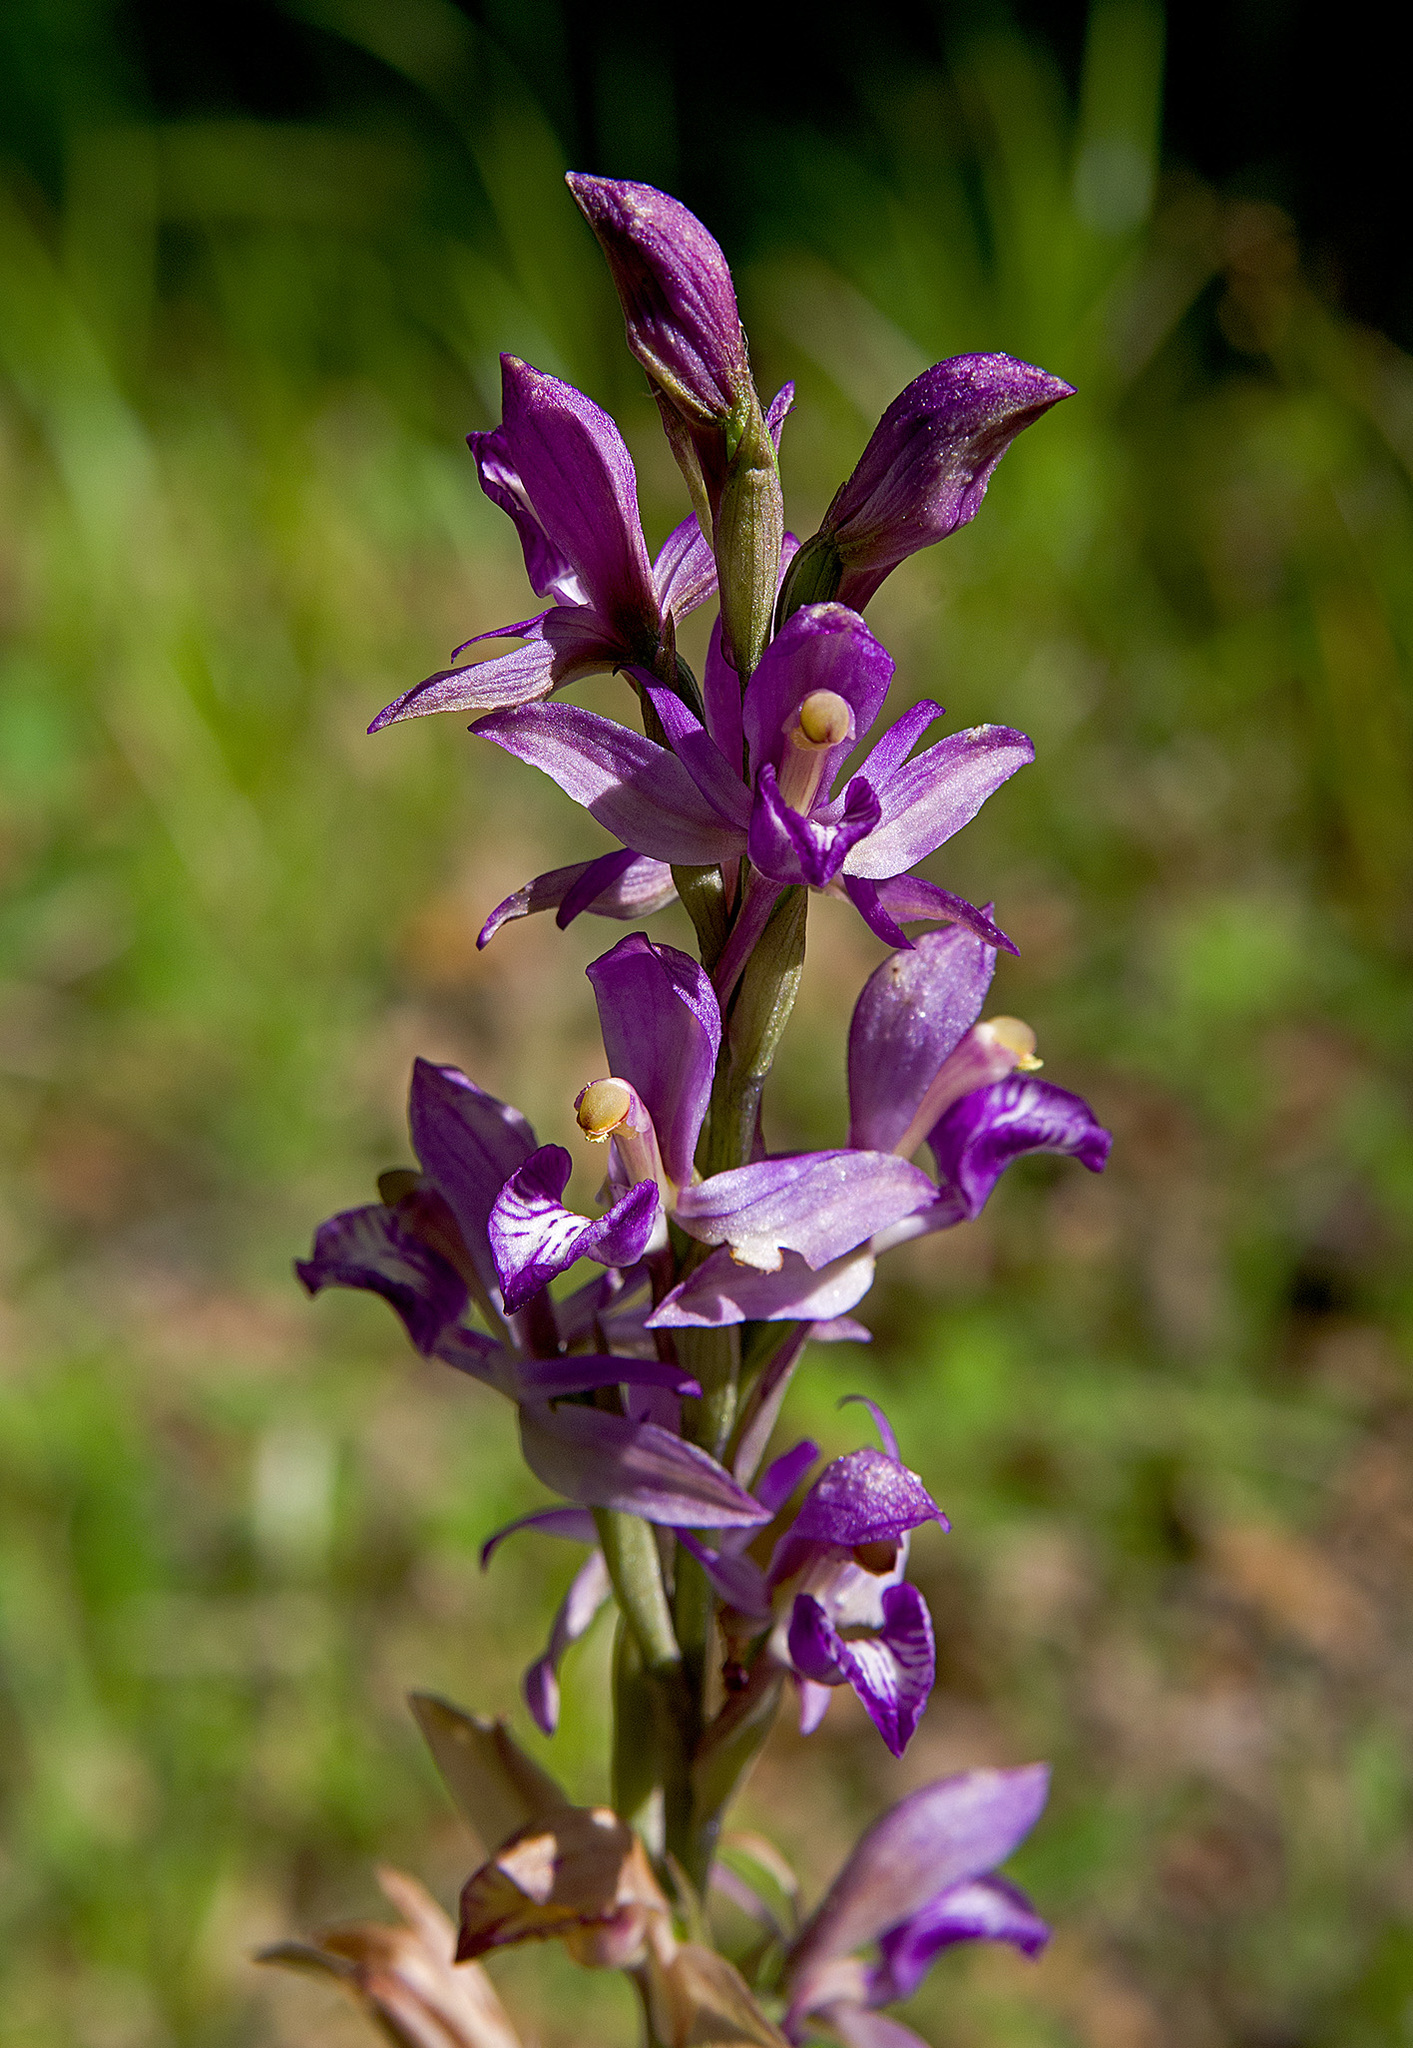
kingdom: Plantae
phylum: Tracheophyta
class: Liliopsida
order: Asparagales
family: Orchidaceae
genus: Limodorum
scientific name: Limodorum abortivum
